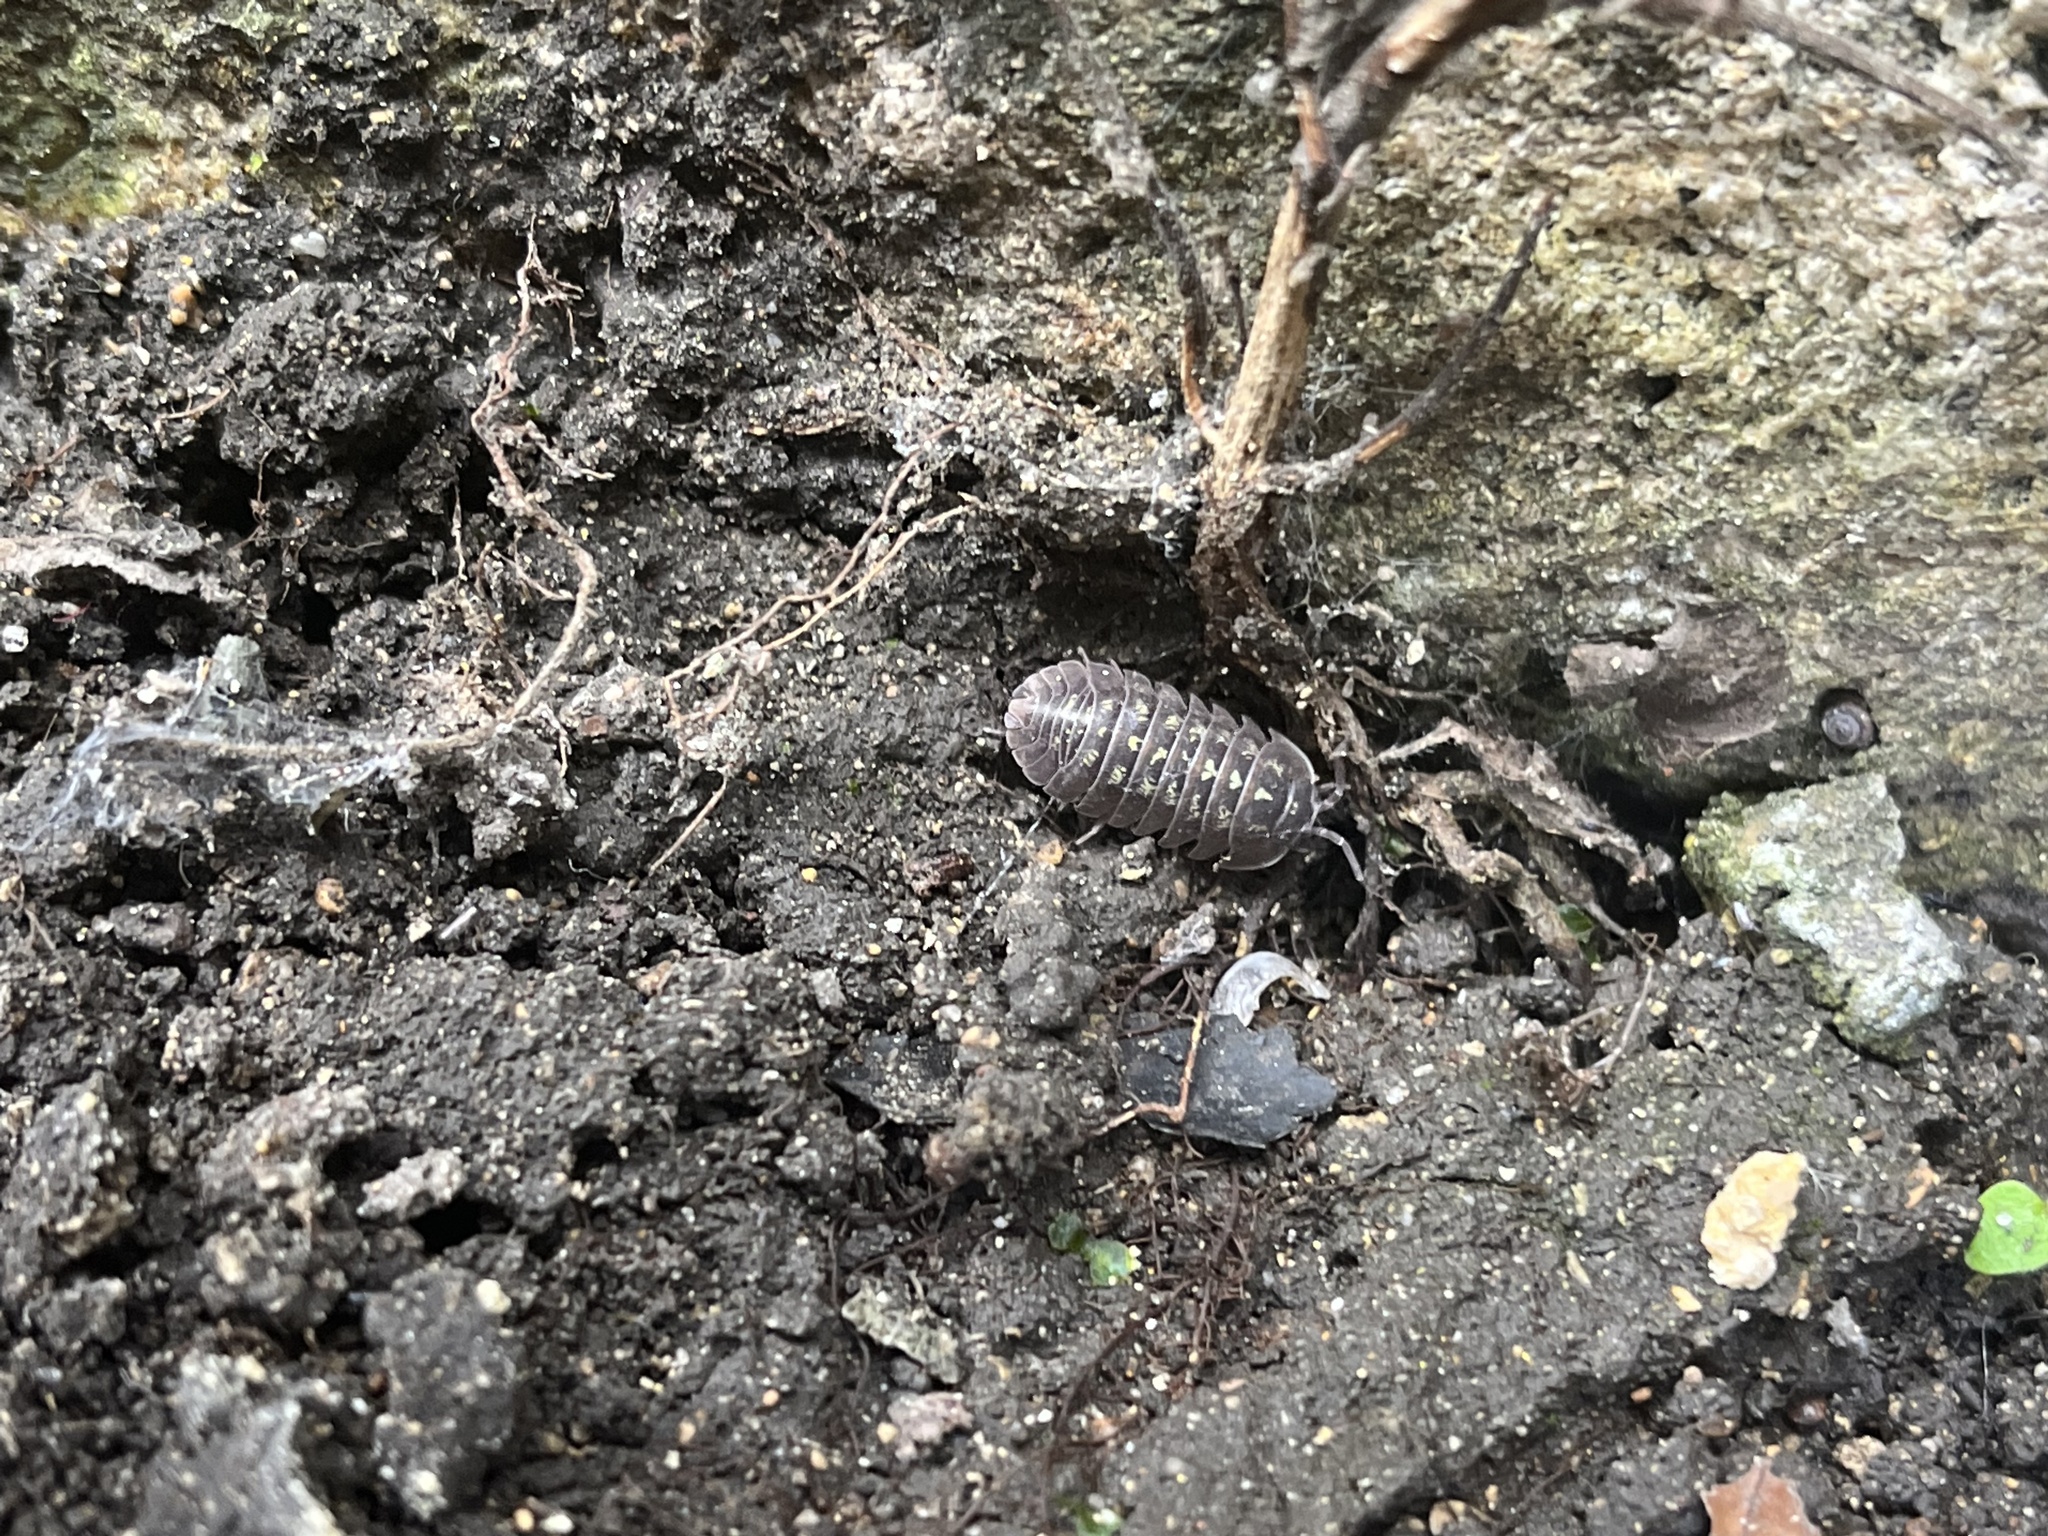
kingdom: Animalia
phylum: Arthropoda
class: Malacostraca
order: Isopoda
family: Armadillidiidae
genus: Armadillidium
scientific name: Armadillidium depressum
